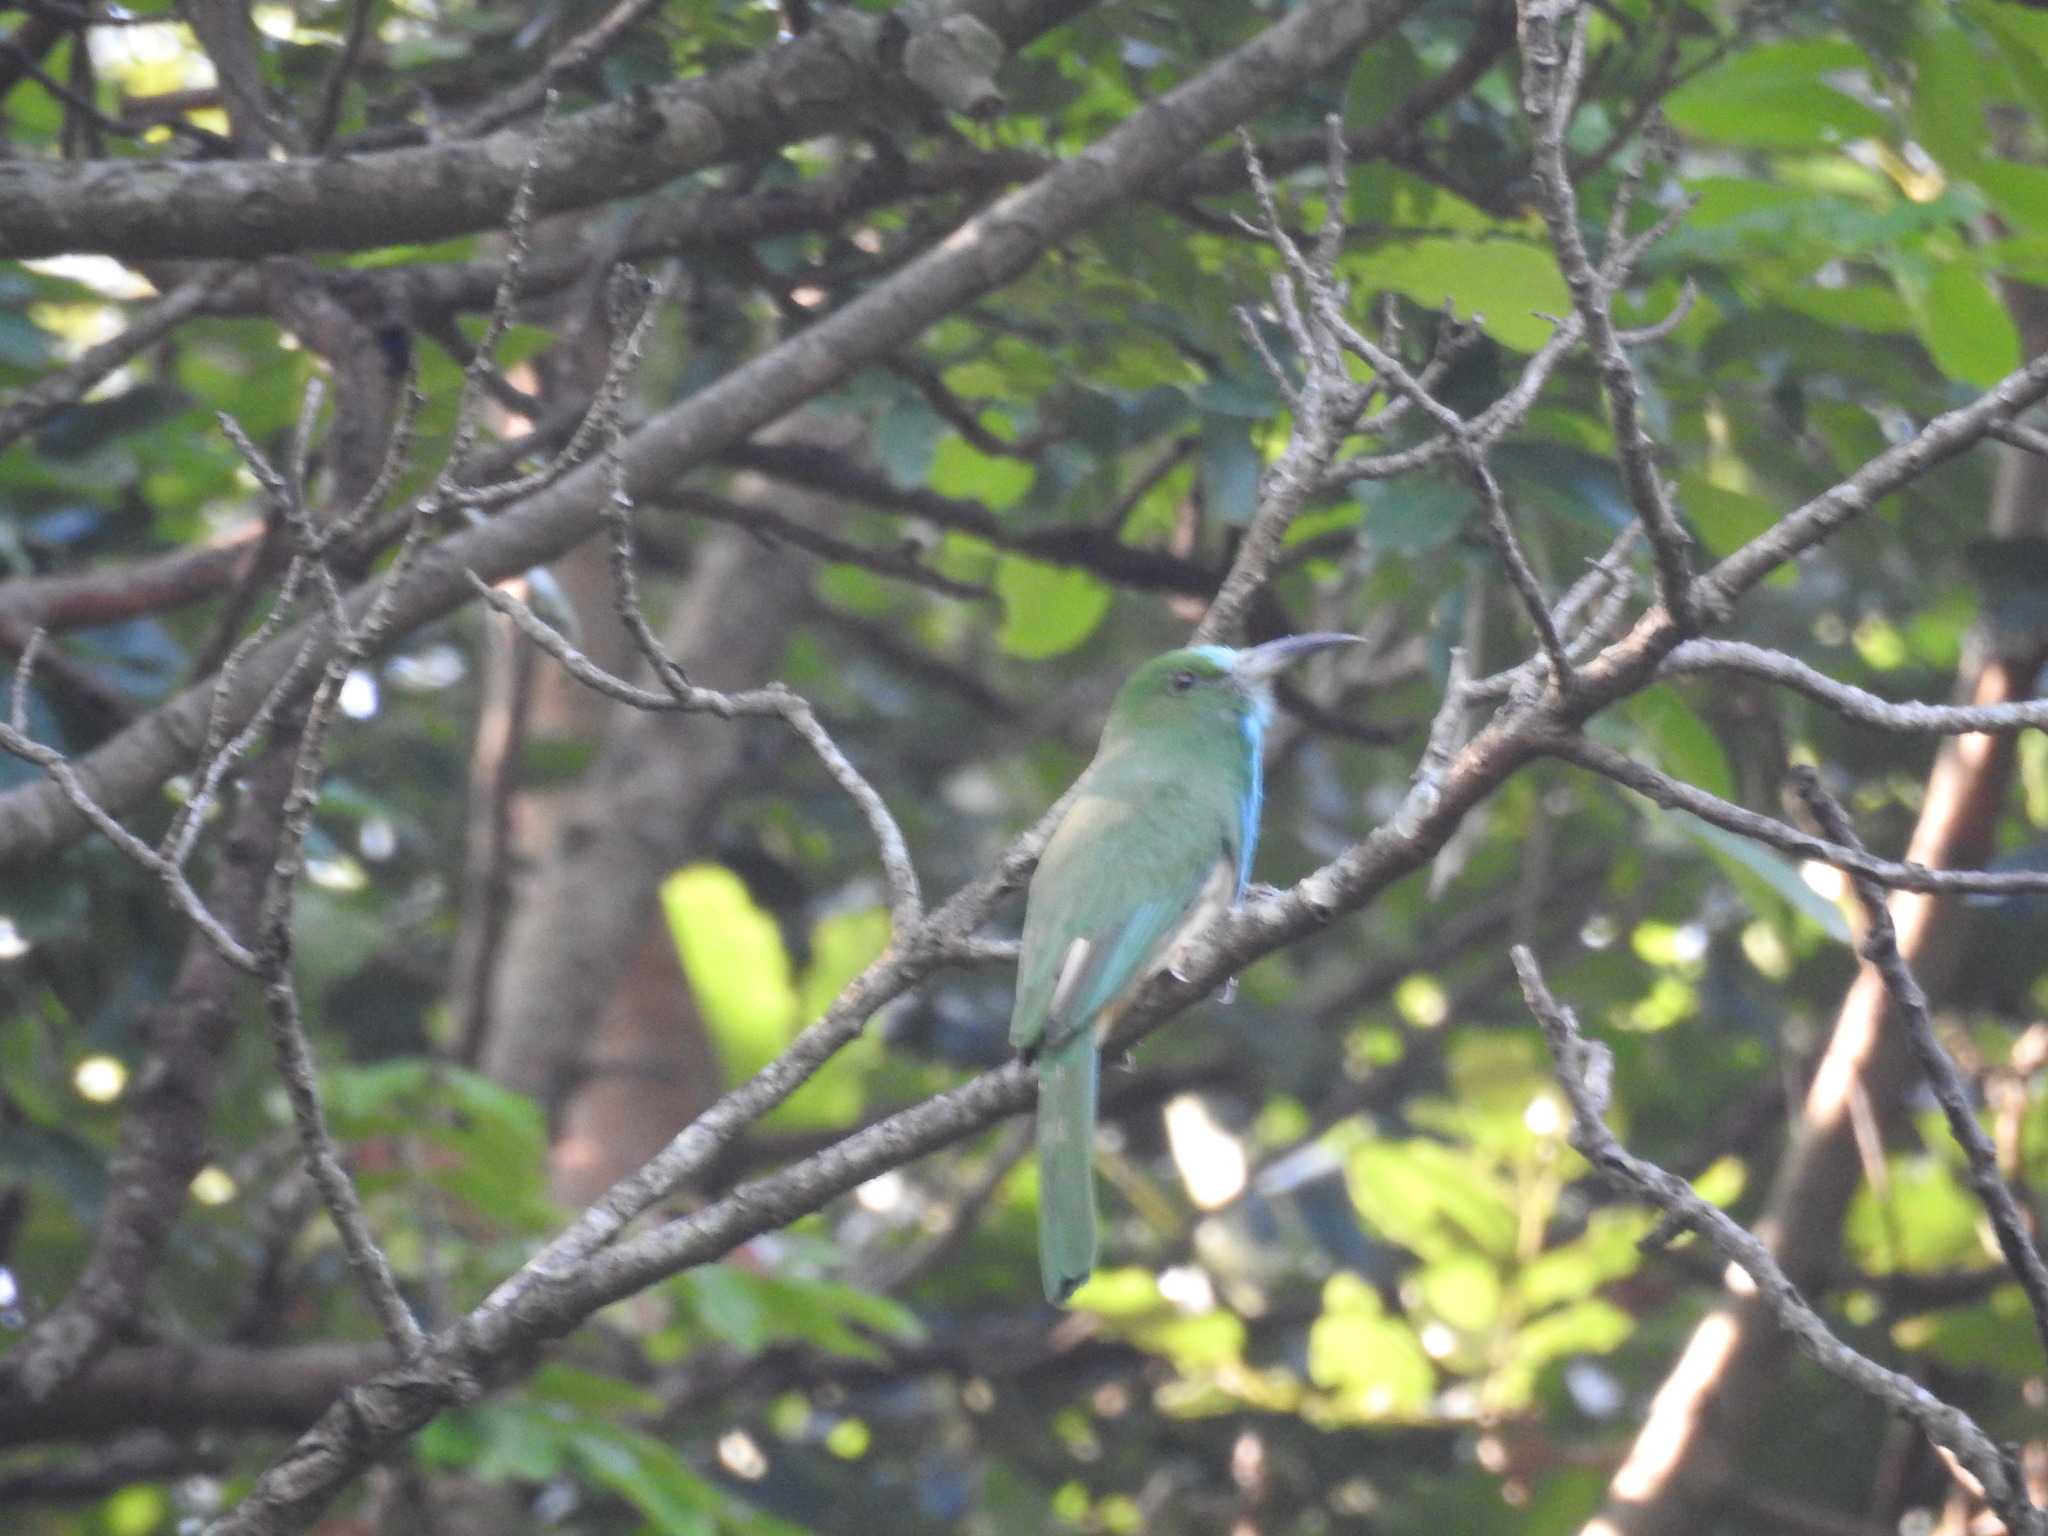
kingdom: Animalia
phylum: Chordata
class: Aves
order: Coraciiformes
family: Meropidae
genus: Nyctyornis
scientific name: Nyctyornis athertoni
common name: Blue-bearded bee-eater
